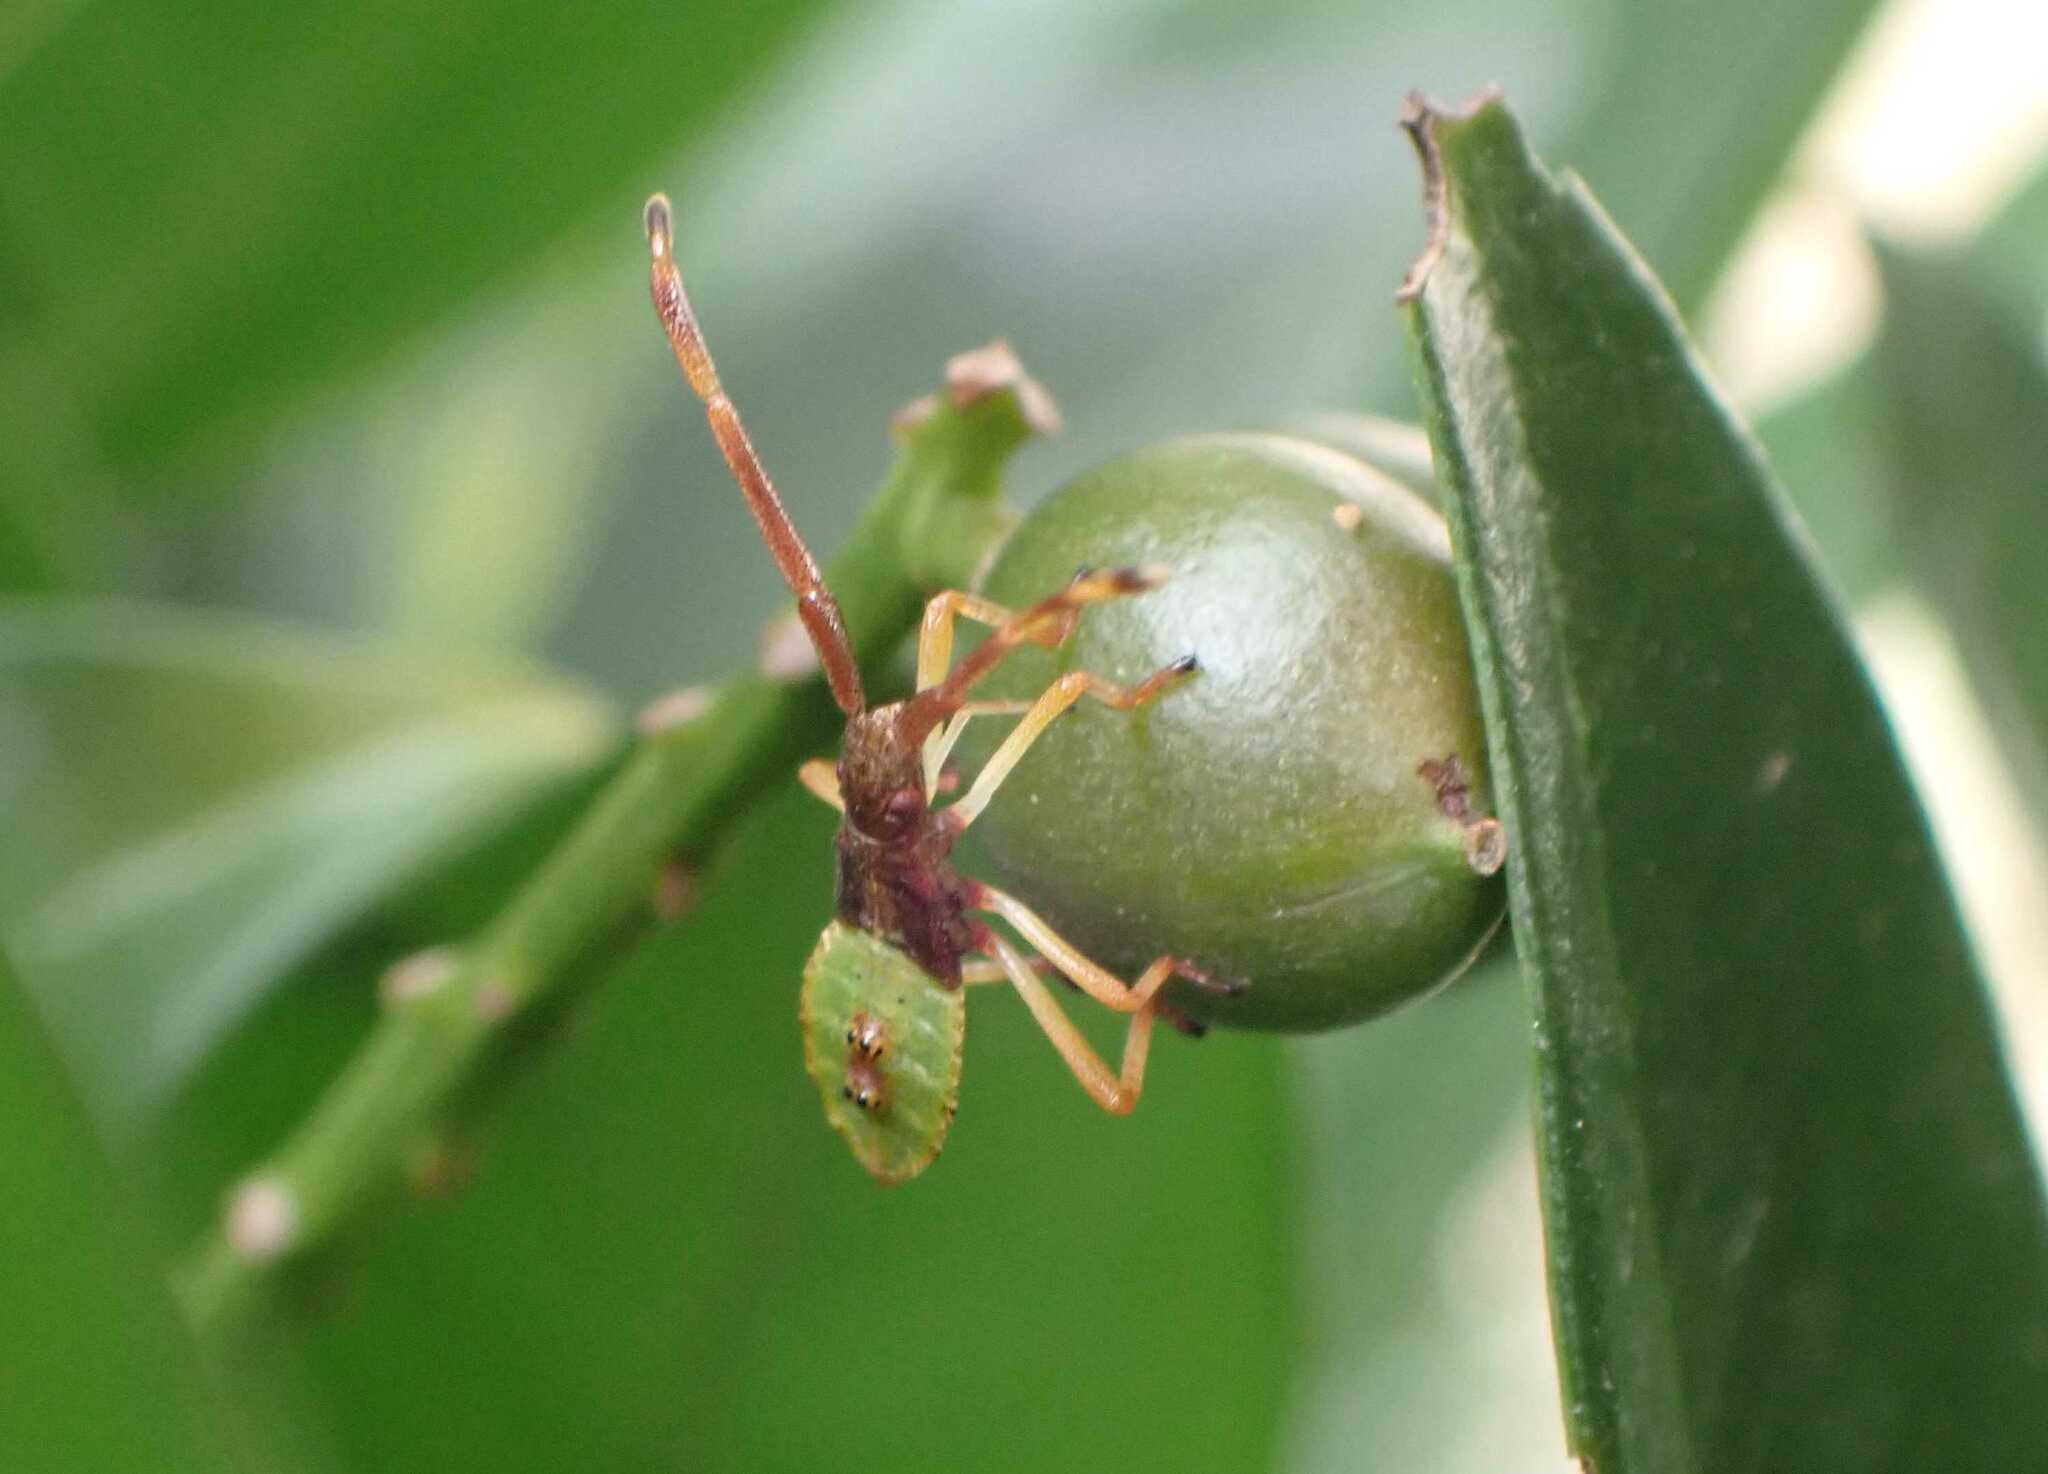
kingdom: Animalia
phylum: Arthropoda
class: Insecta
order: Hemiptera
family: Coreidae
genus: Gonocerus
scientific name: Gonocerus acuteangulatus
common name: Box bug
